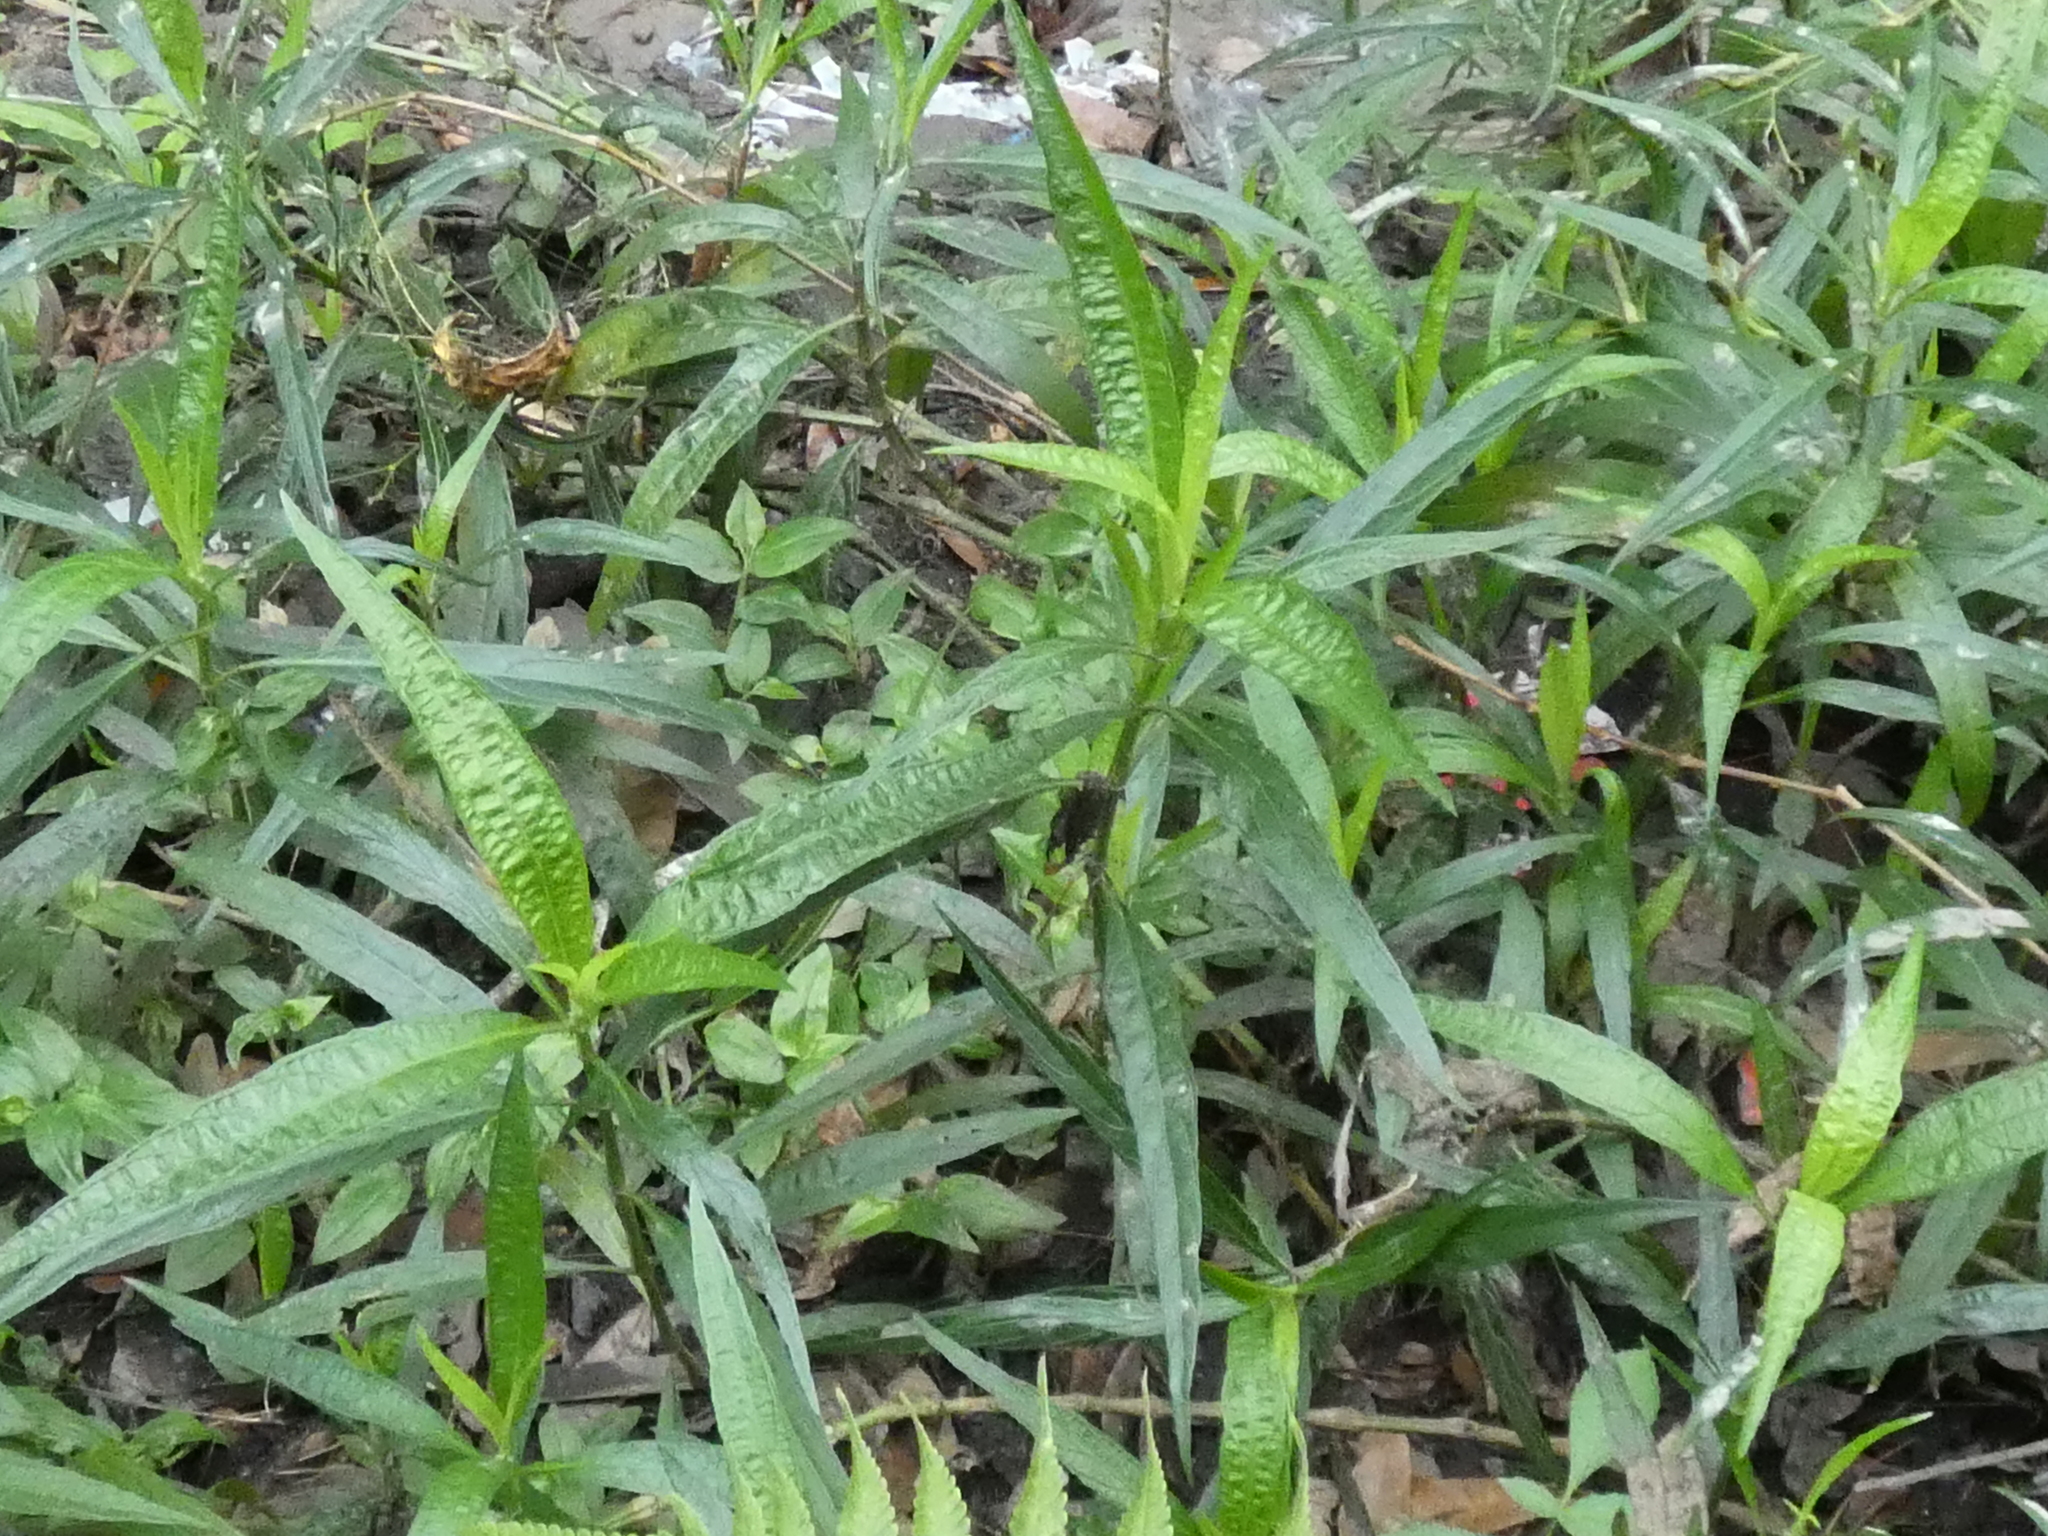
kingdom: Plantae
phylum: Tracheophyta
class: Magnoliopsida
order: Lamiales
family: Acanthaceae
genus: Ruellia
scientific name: Ruellia simplex
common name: Softseed wild petunia
